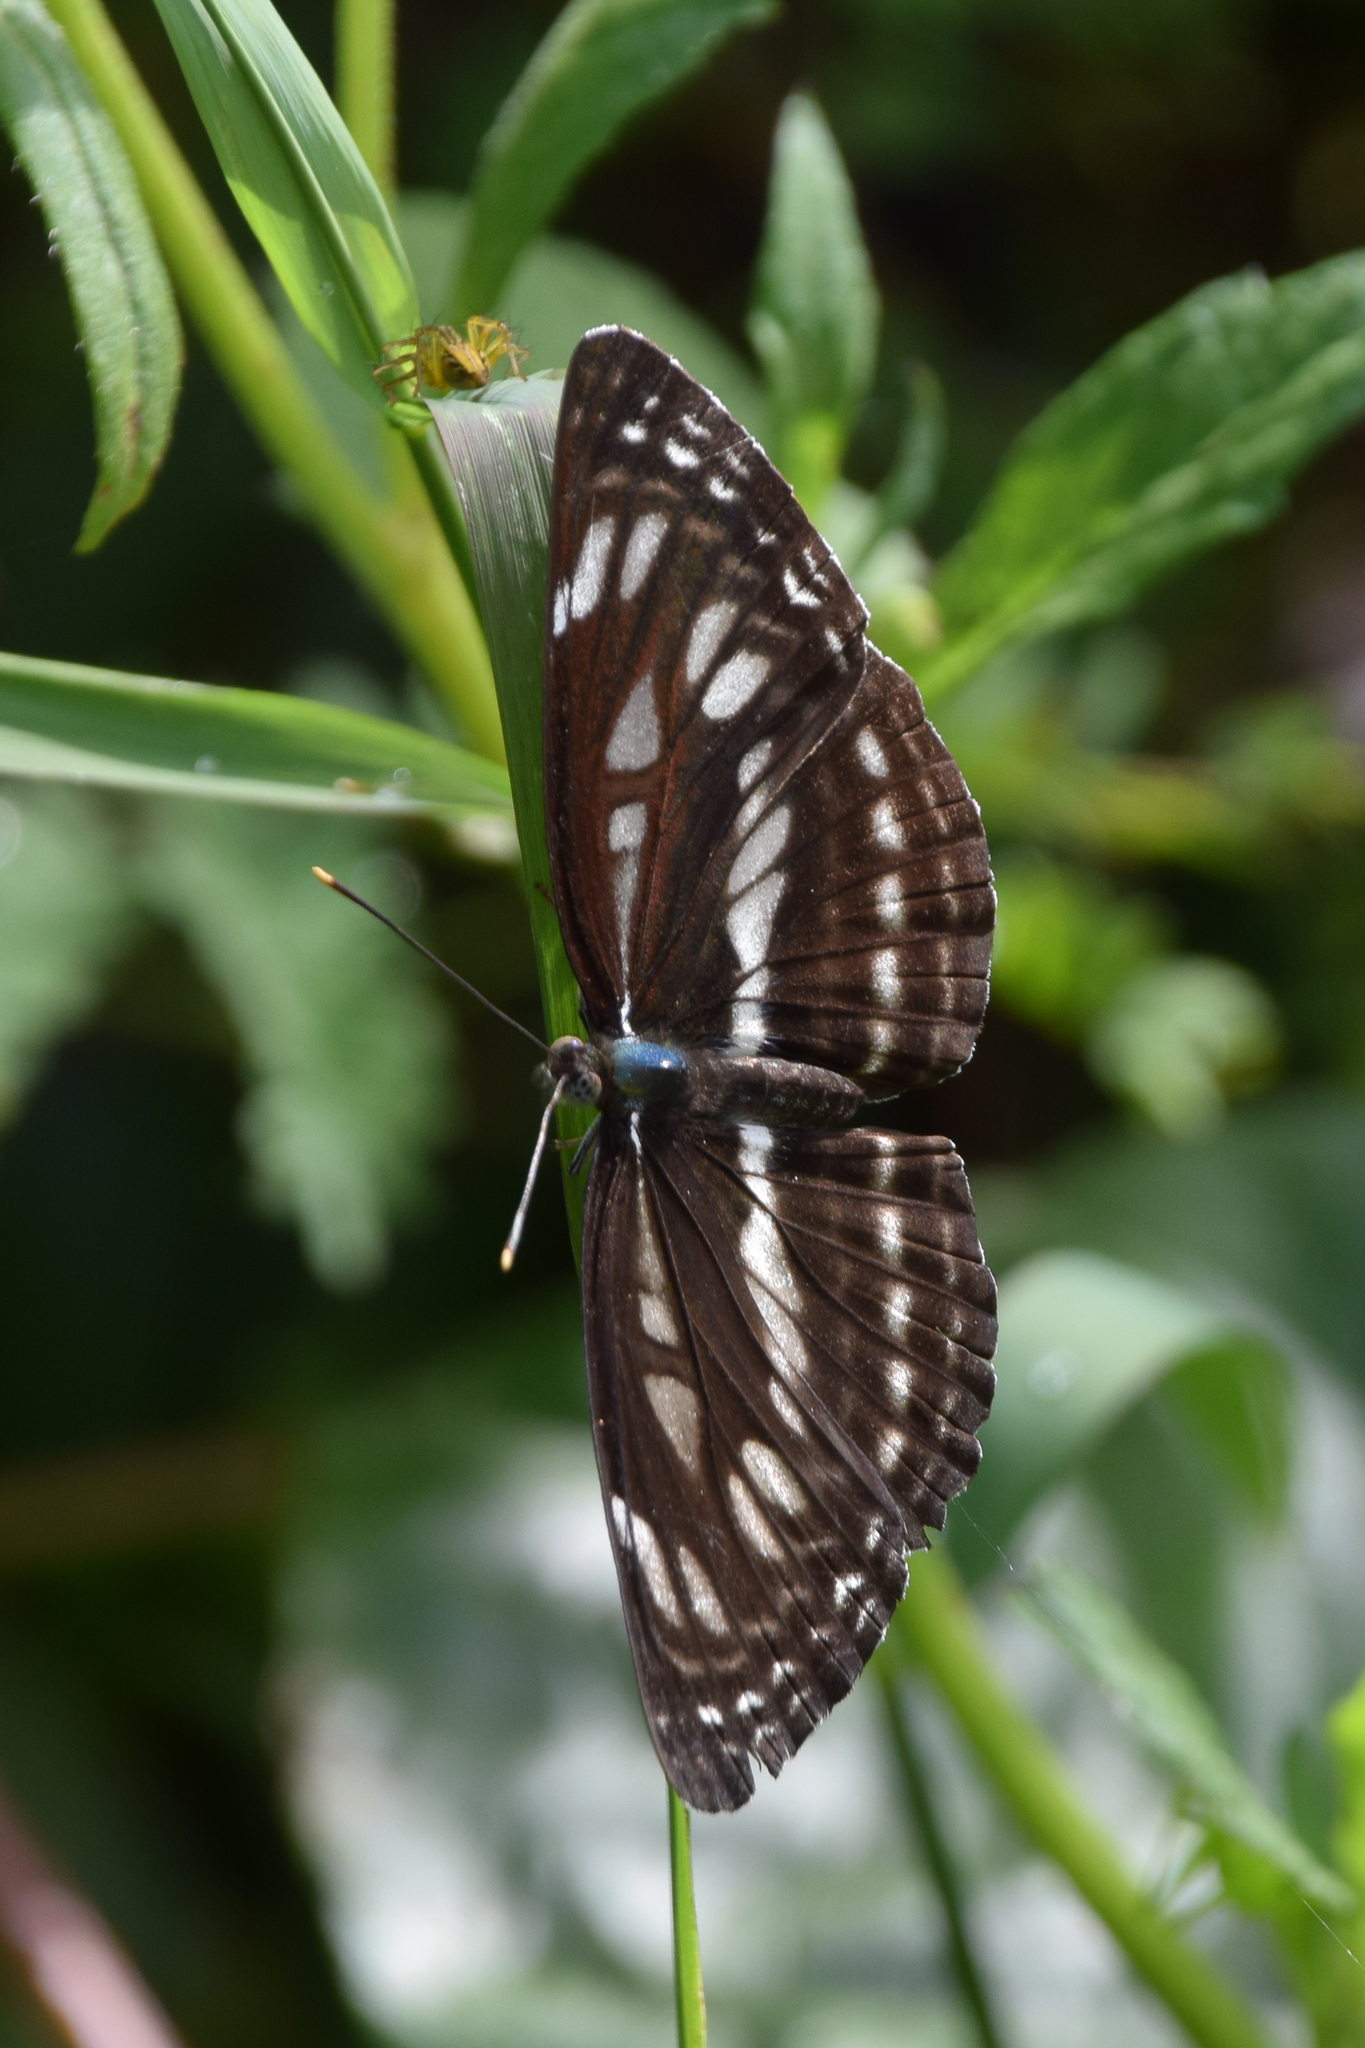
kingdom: Animalia
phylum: Arthropoda
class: Insecta
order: Lepidoptera
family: Nymphalidae
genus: Neptis
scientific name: Neptis ida
